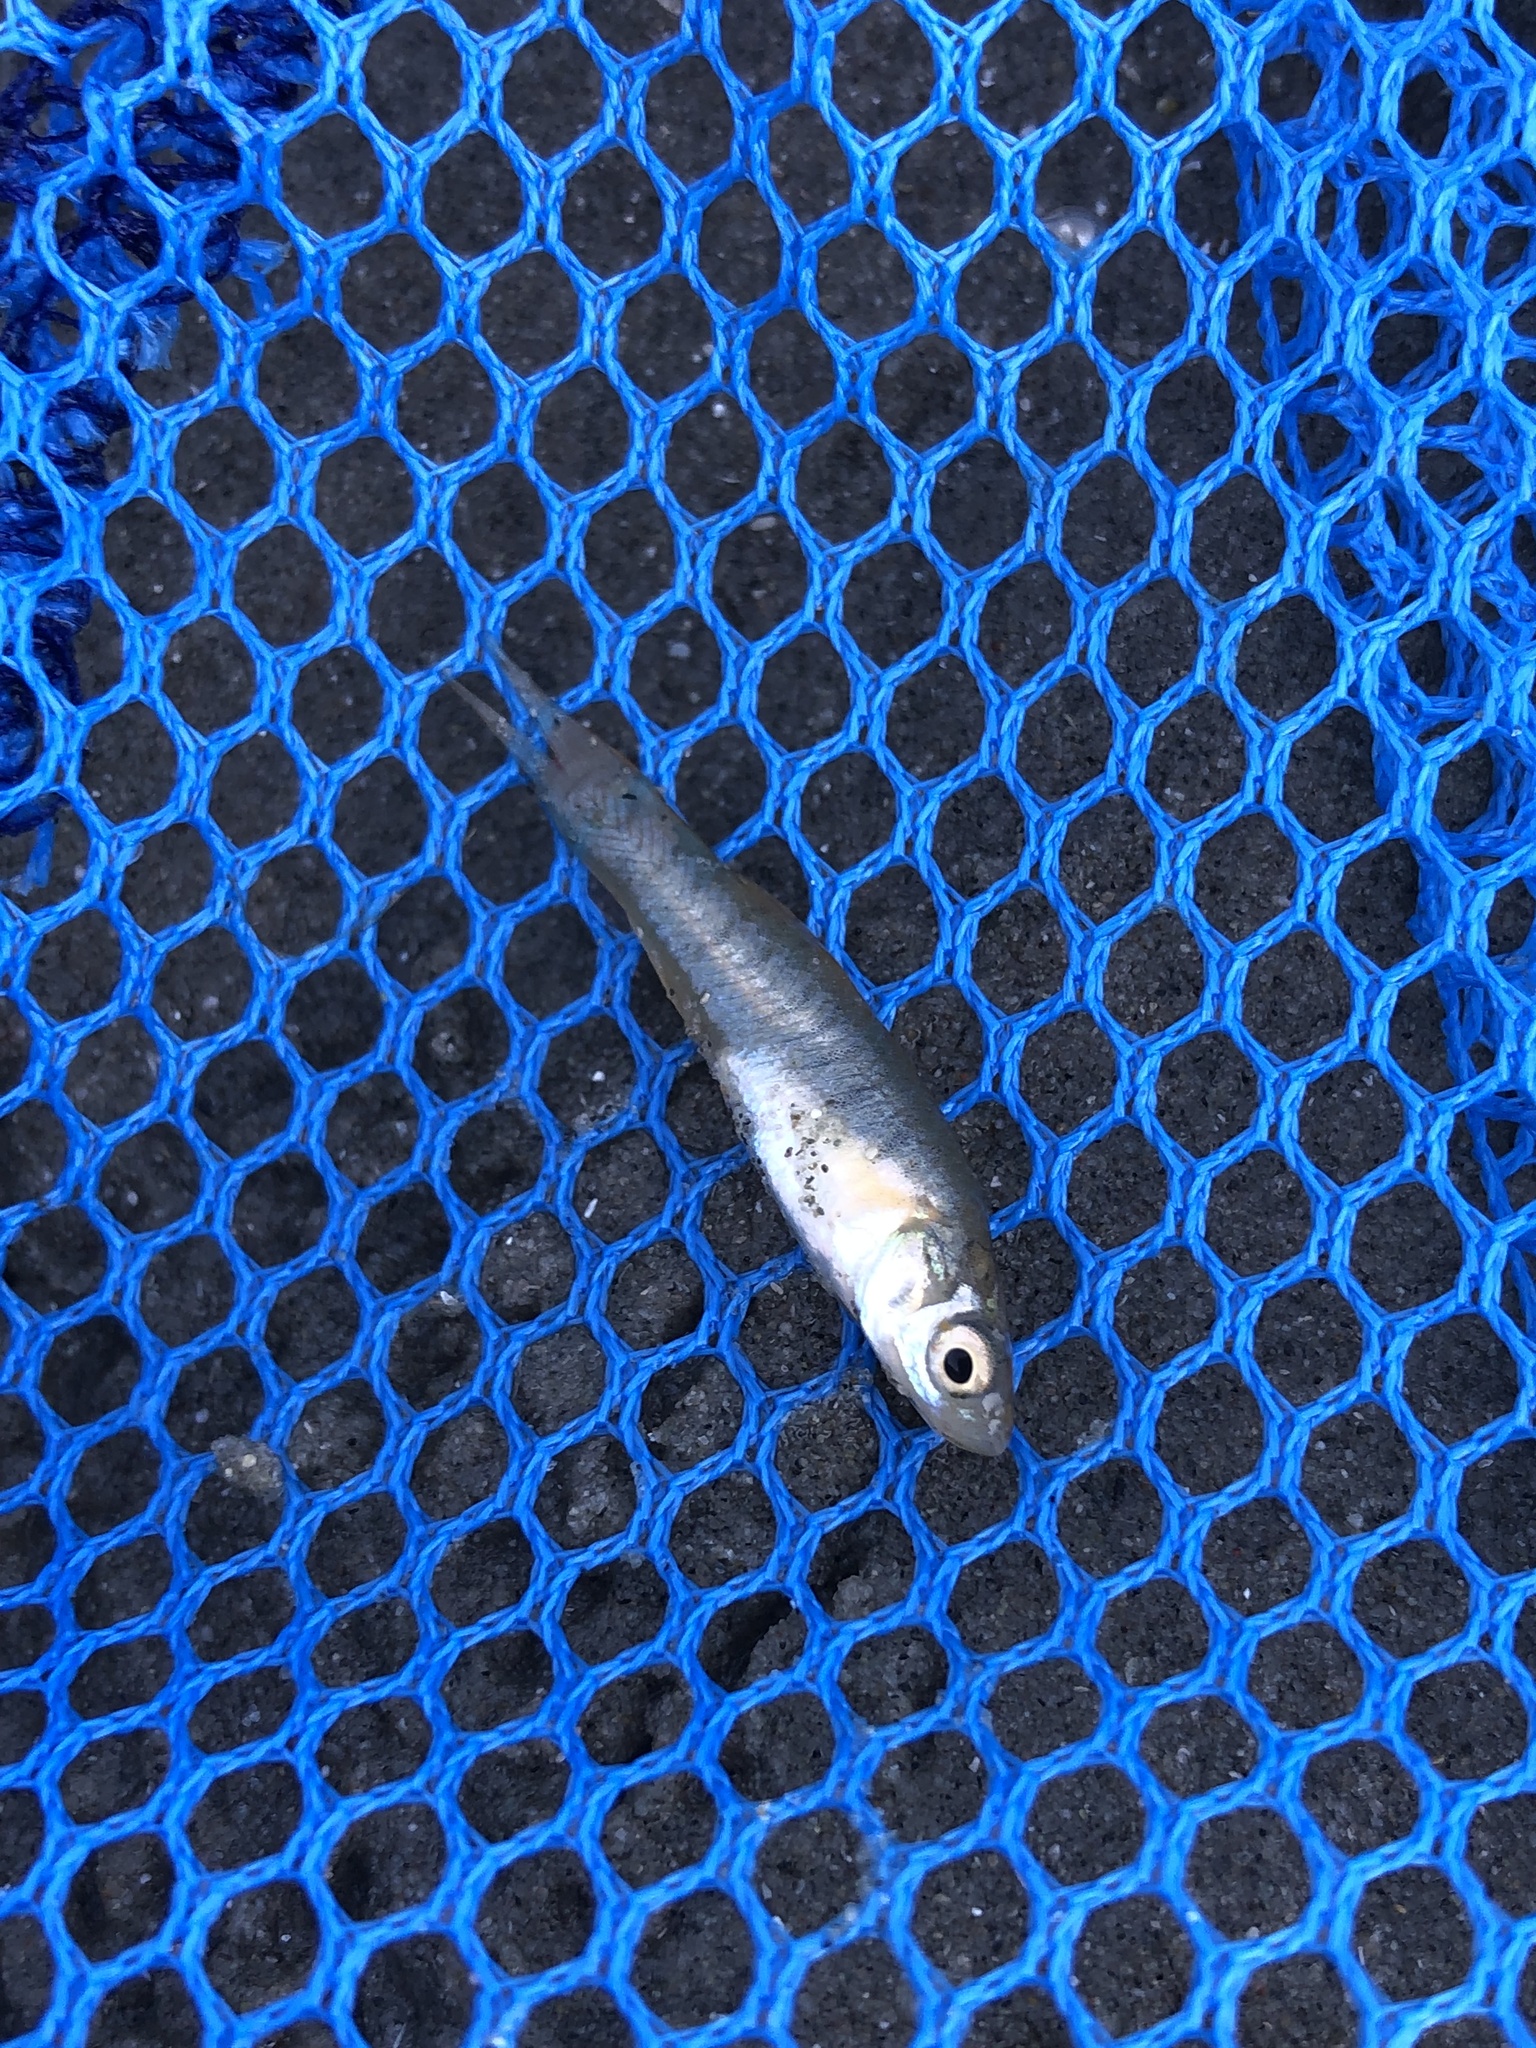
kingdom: Animalia
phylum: Chordata
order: Cyprinodontiformes
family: Fundulidae
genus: Fundulus
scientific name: Fundulus heteroclitus
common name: Mummichog
